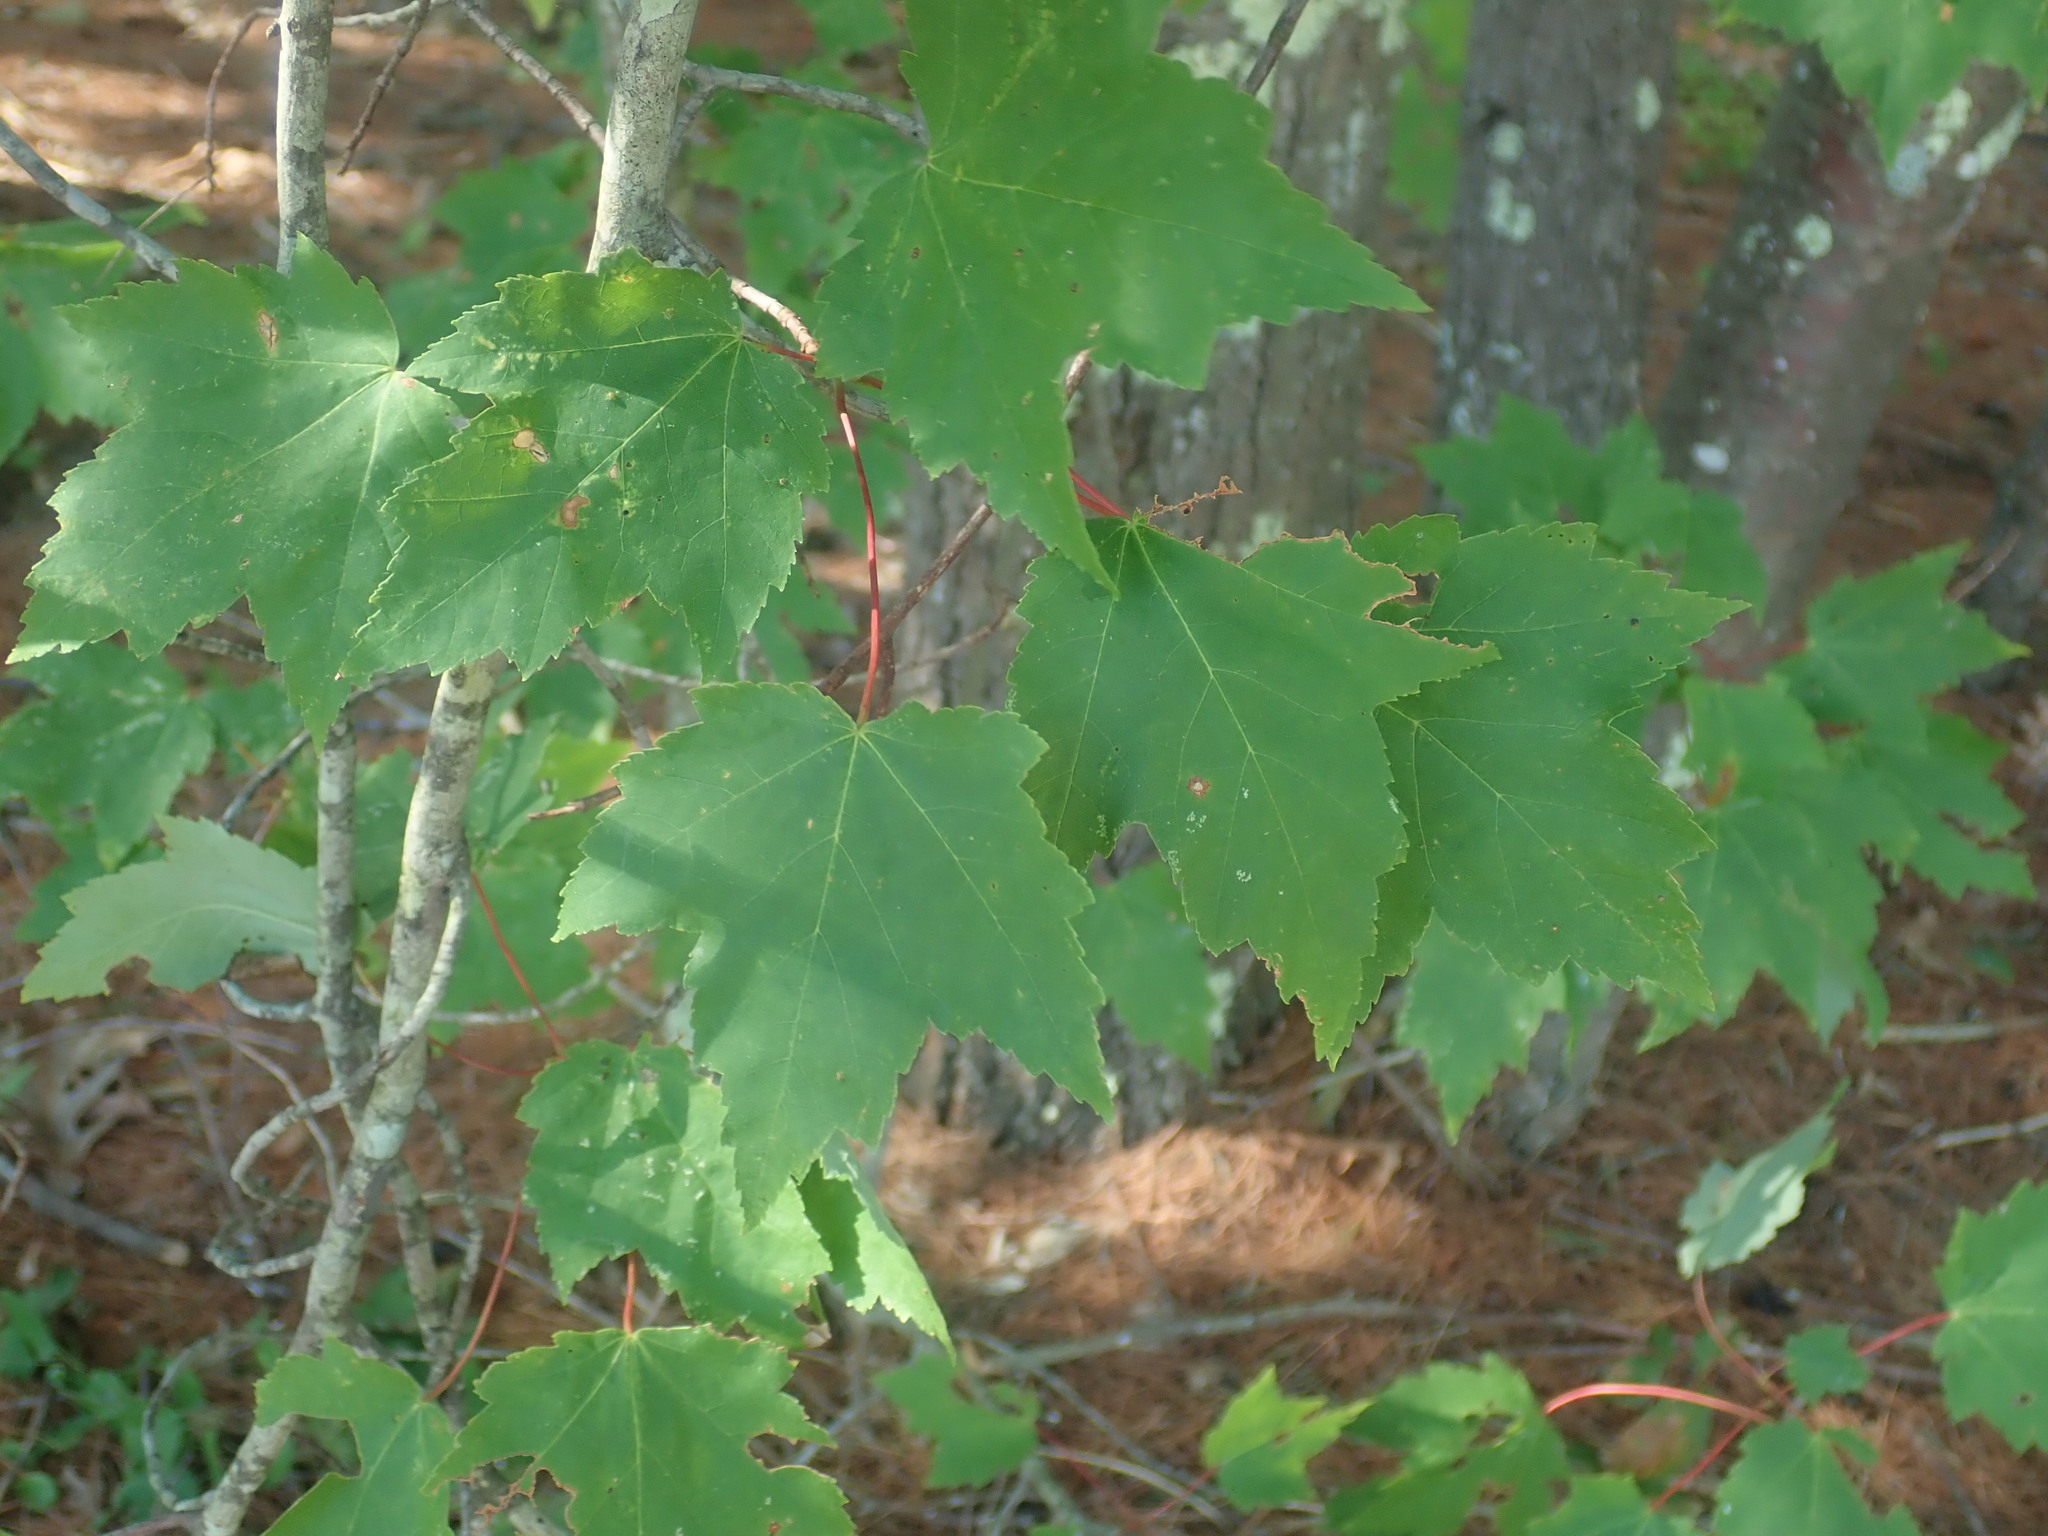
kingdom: Plantae
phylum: Tracheophyta
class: Magnoliopsida
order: Sapindales
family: Sapindaceae
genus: Acer
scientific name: Acer rubrum
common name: Red maple
